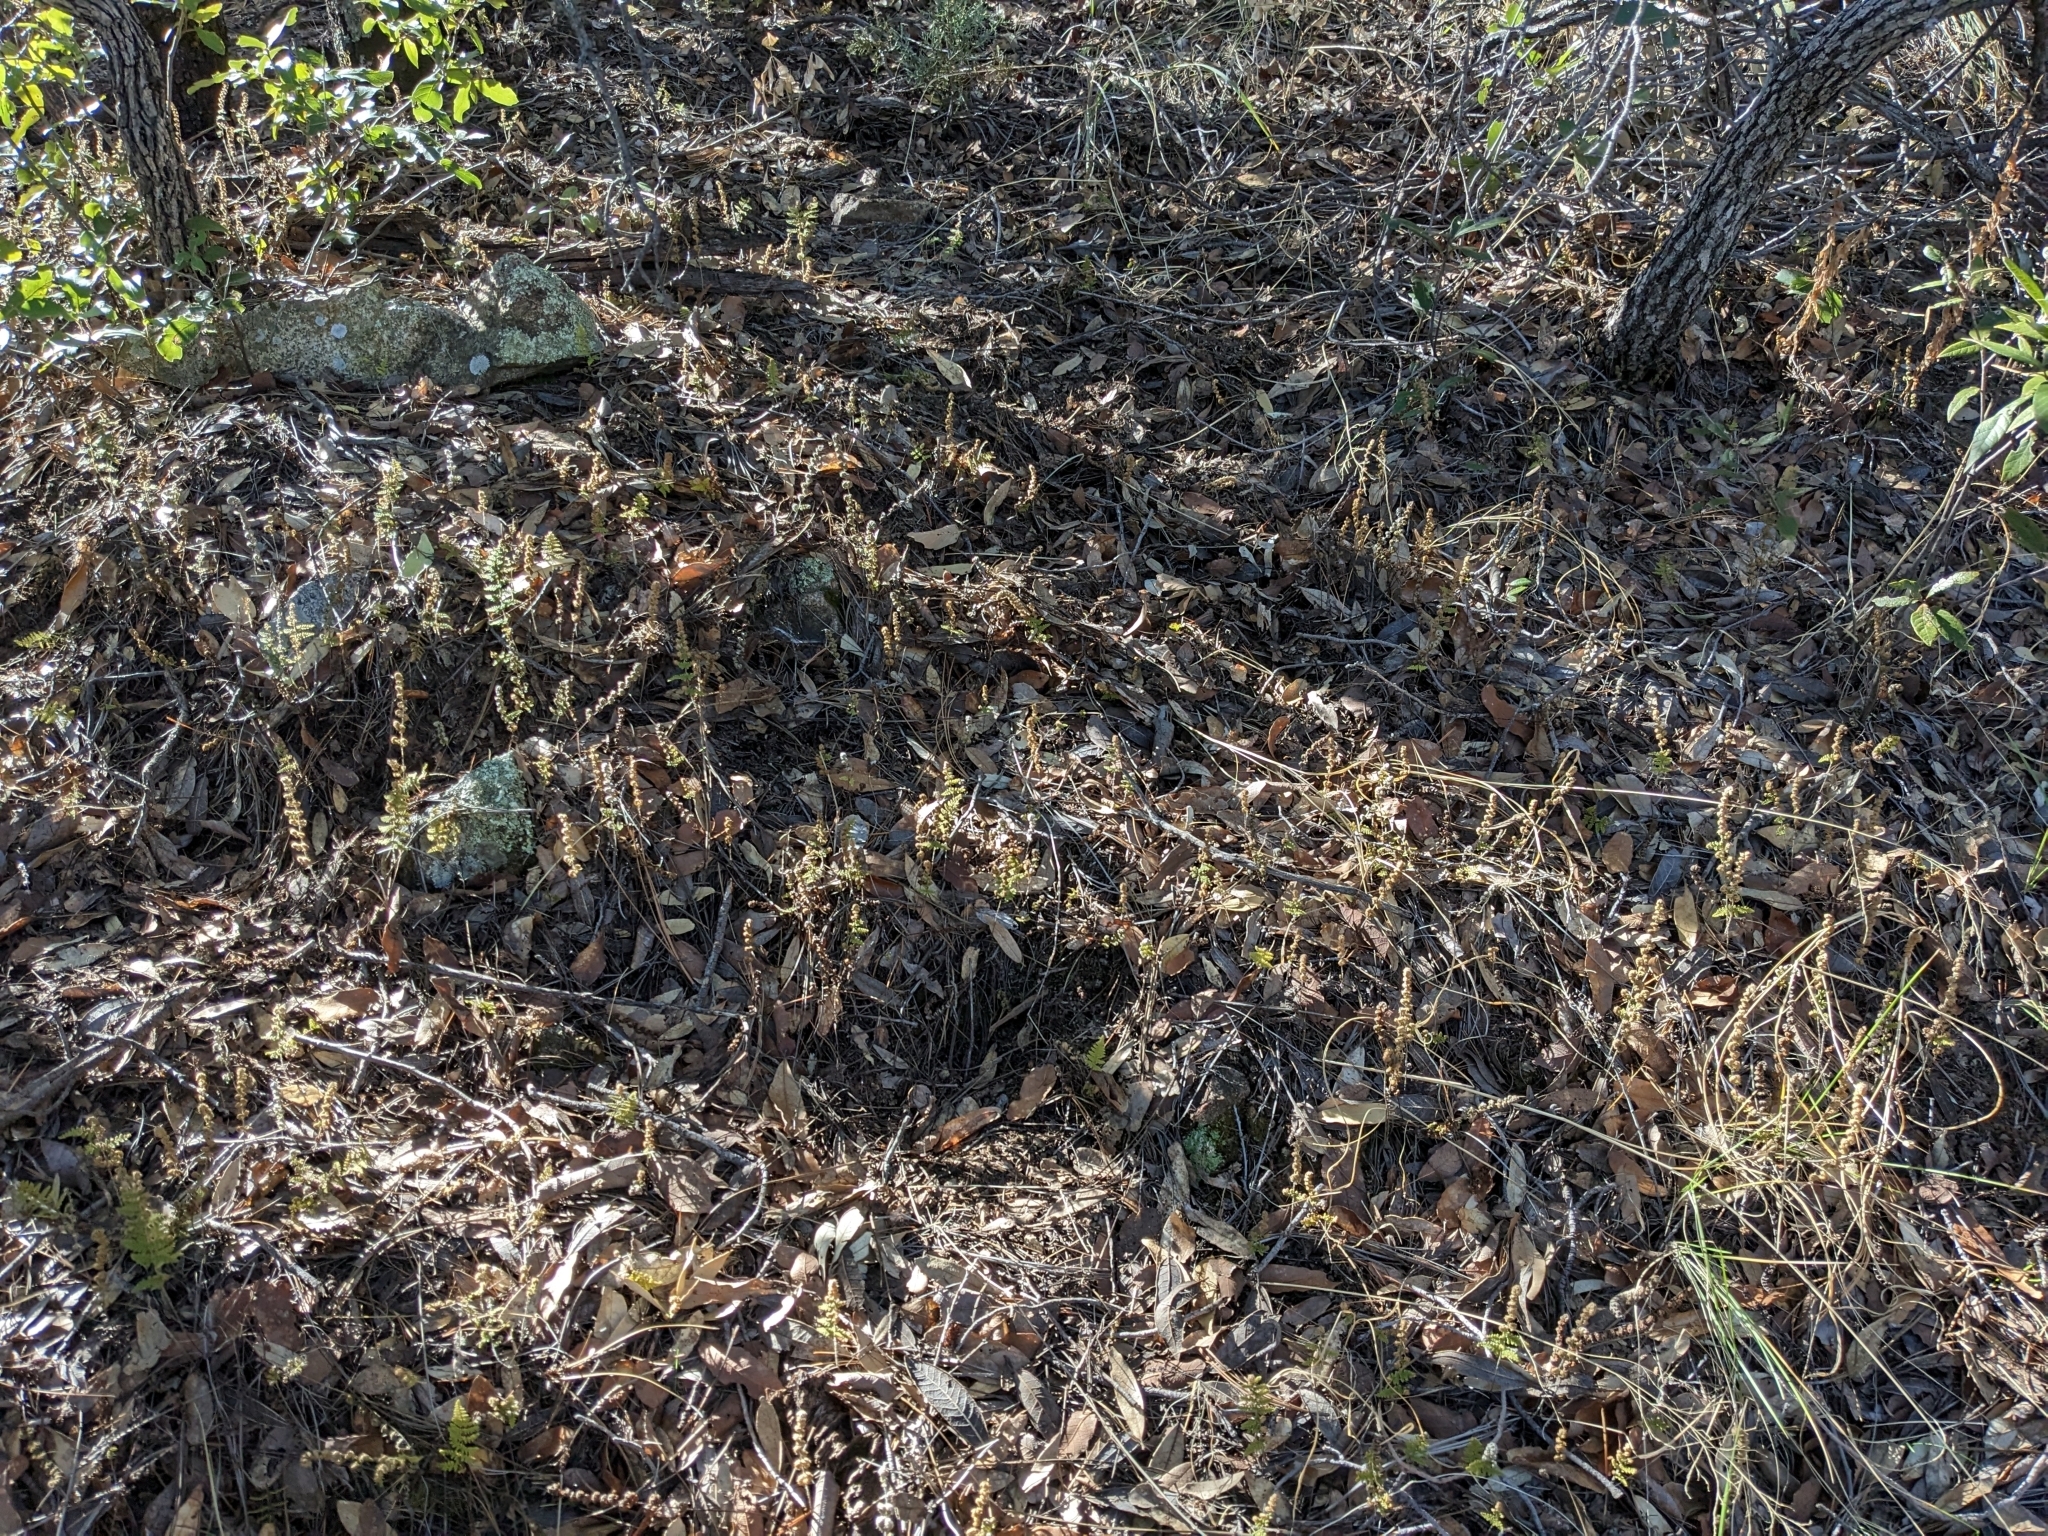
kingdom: Plantae
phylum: Tracheophyta
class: Polypodiopsida
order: Polypodiales
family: Pteridaceae
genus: Myriopteris
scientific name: Myriopteris fendleri
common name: Fendler's lip fern
